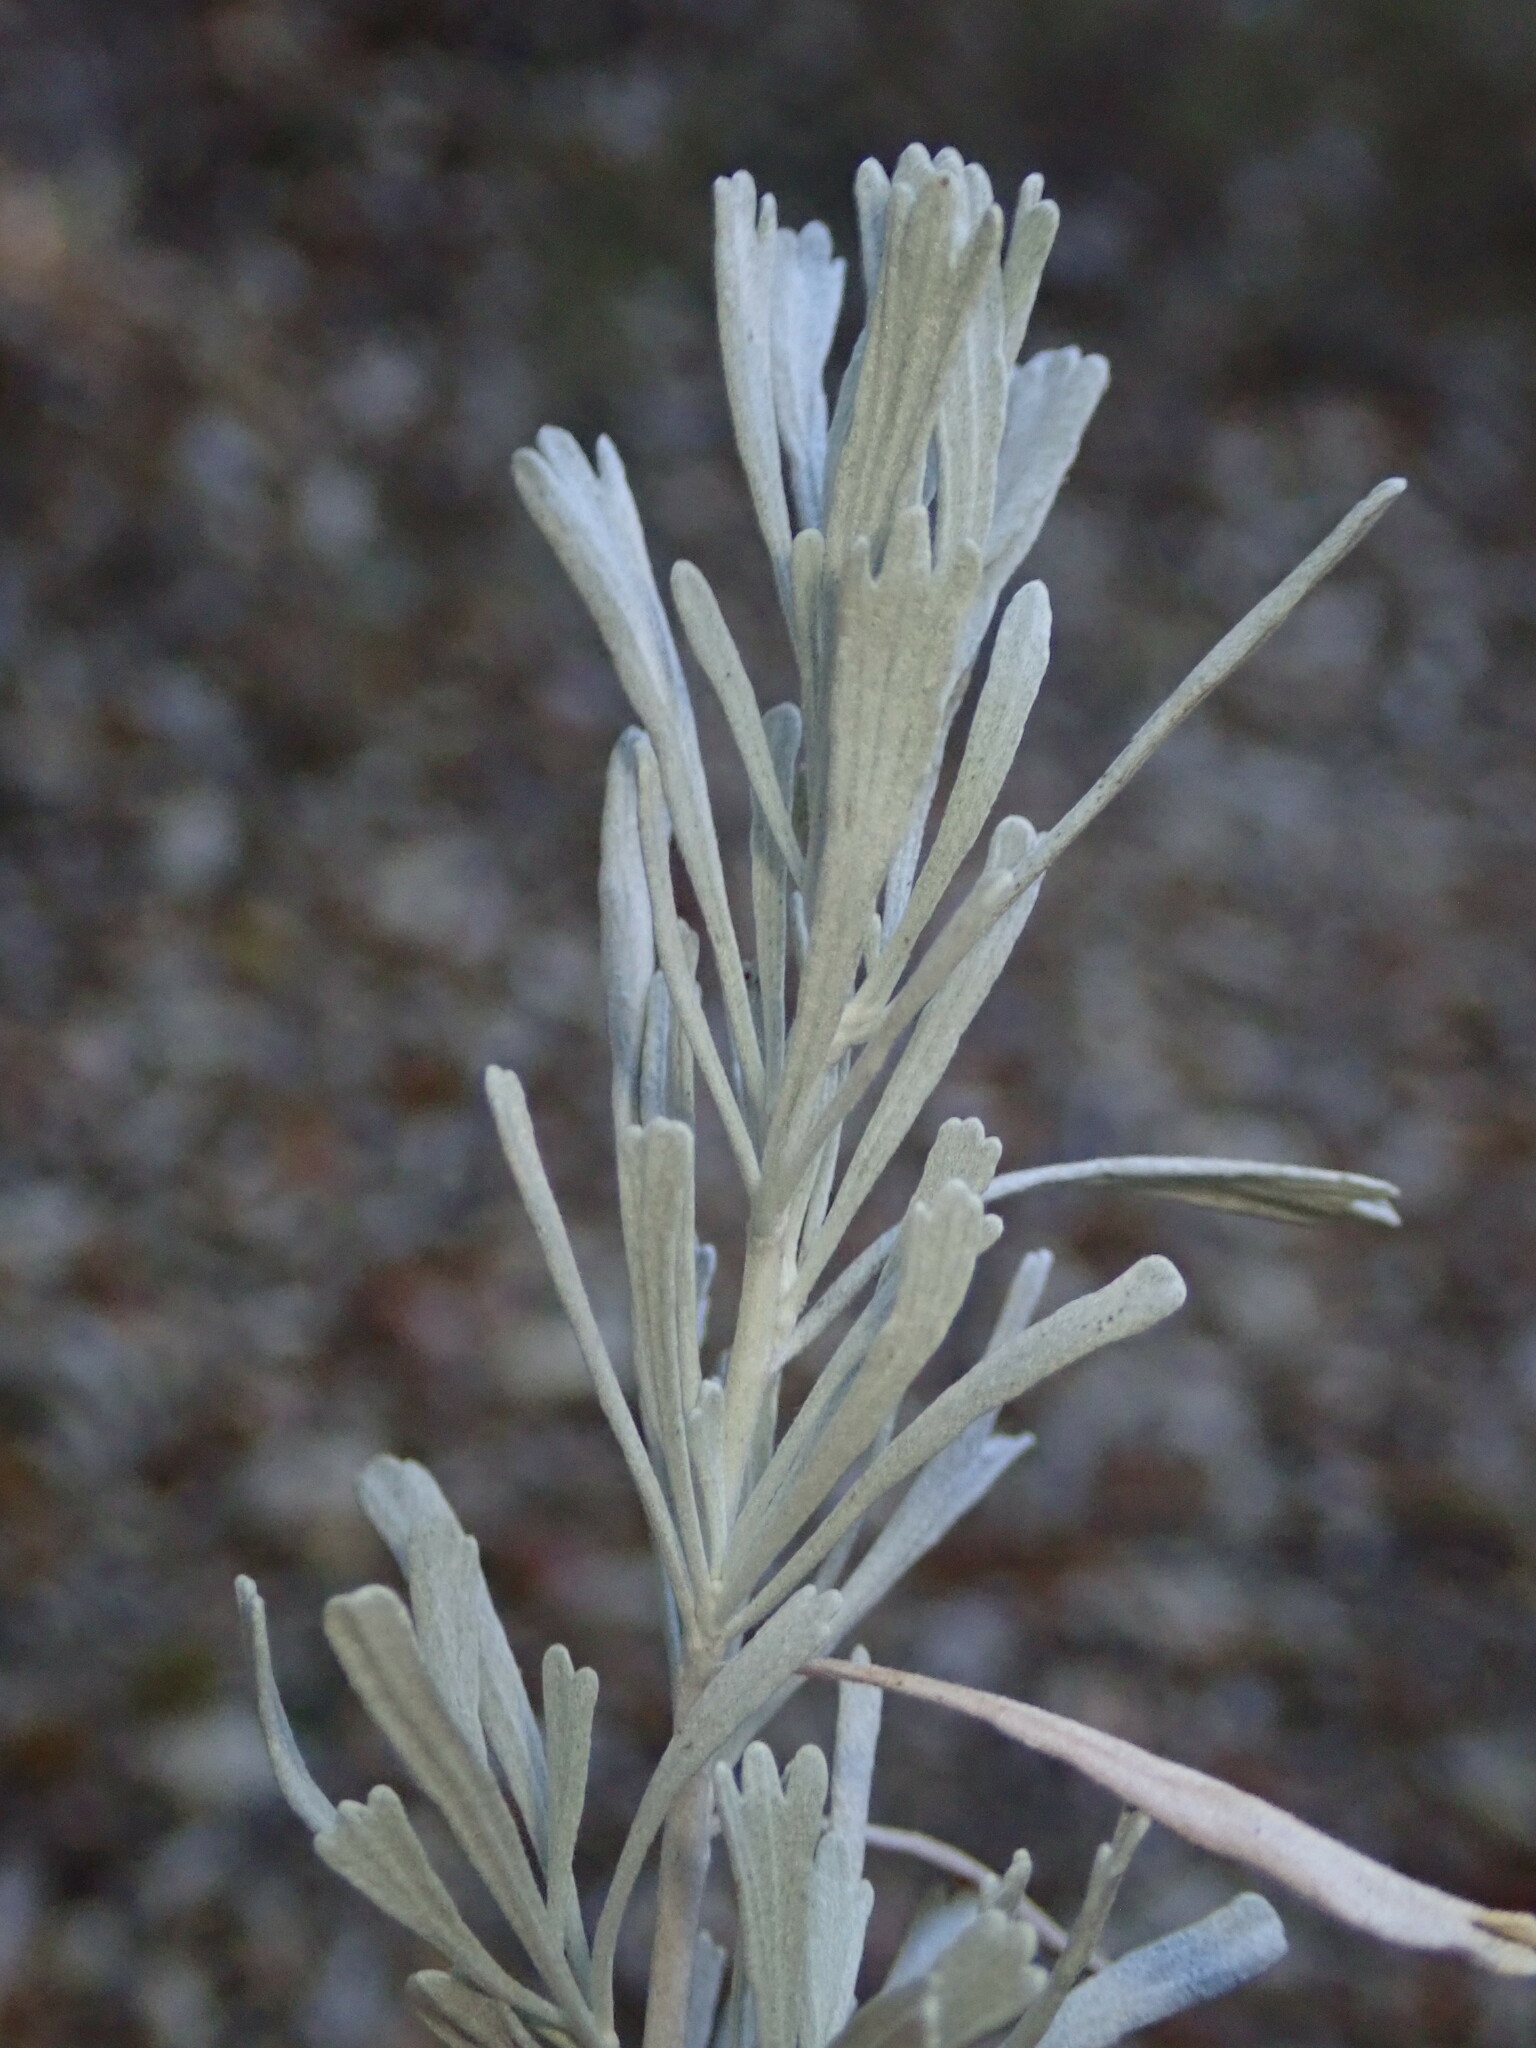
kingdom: Plantae
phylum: Tracheophyta
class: Magnoliopsida
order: Asterales
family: Asteraceae
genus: Artemisia
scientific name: Artemisia tridentata
